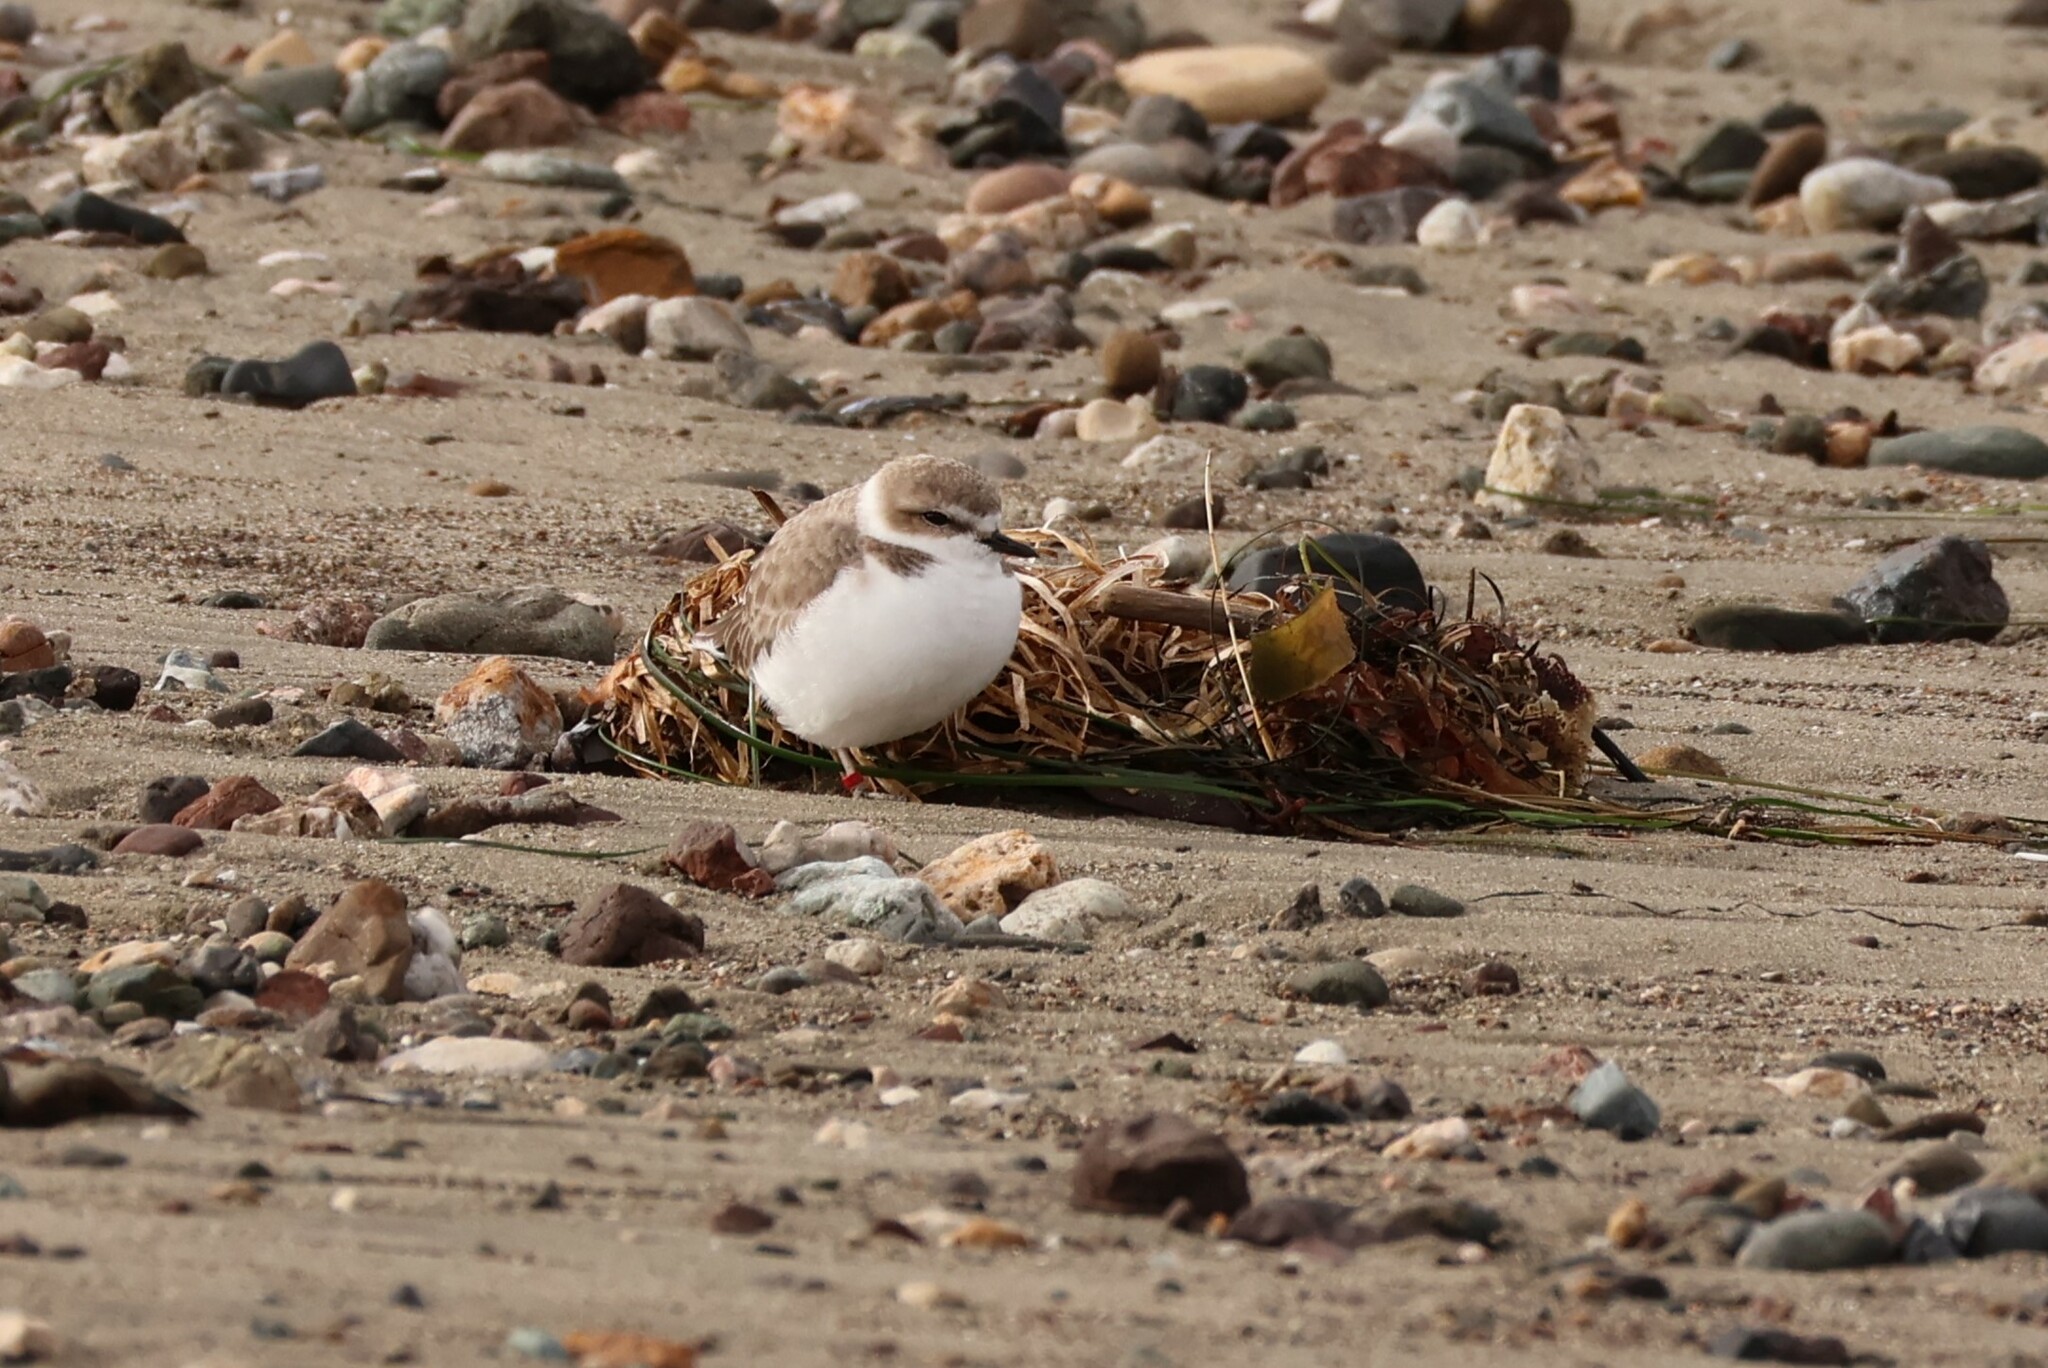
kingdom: Animalia
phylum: Chordata
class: Aves
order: Charadriiformes
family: Charadriidae
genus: Anarhynchus
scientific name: Anarhynchus
